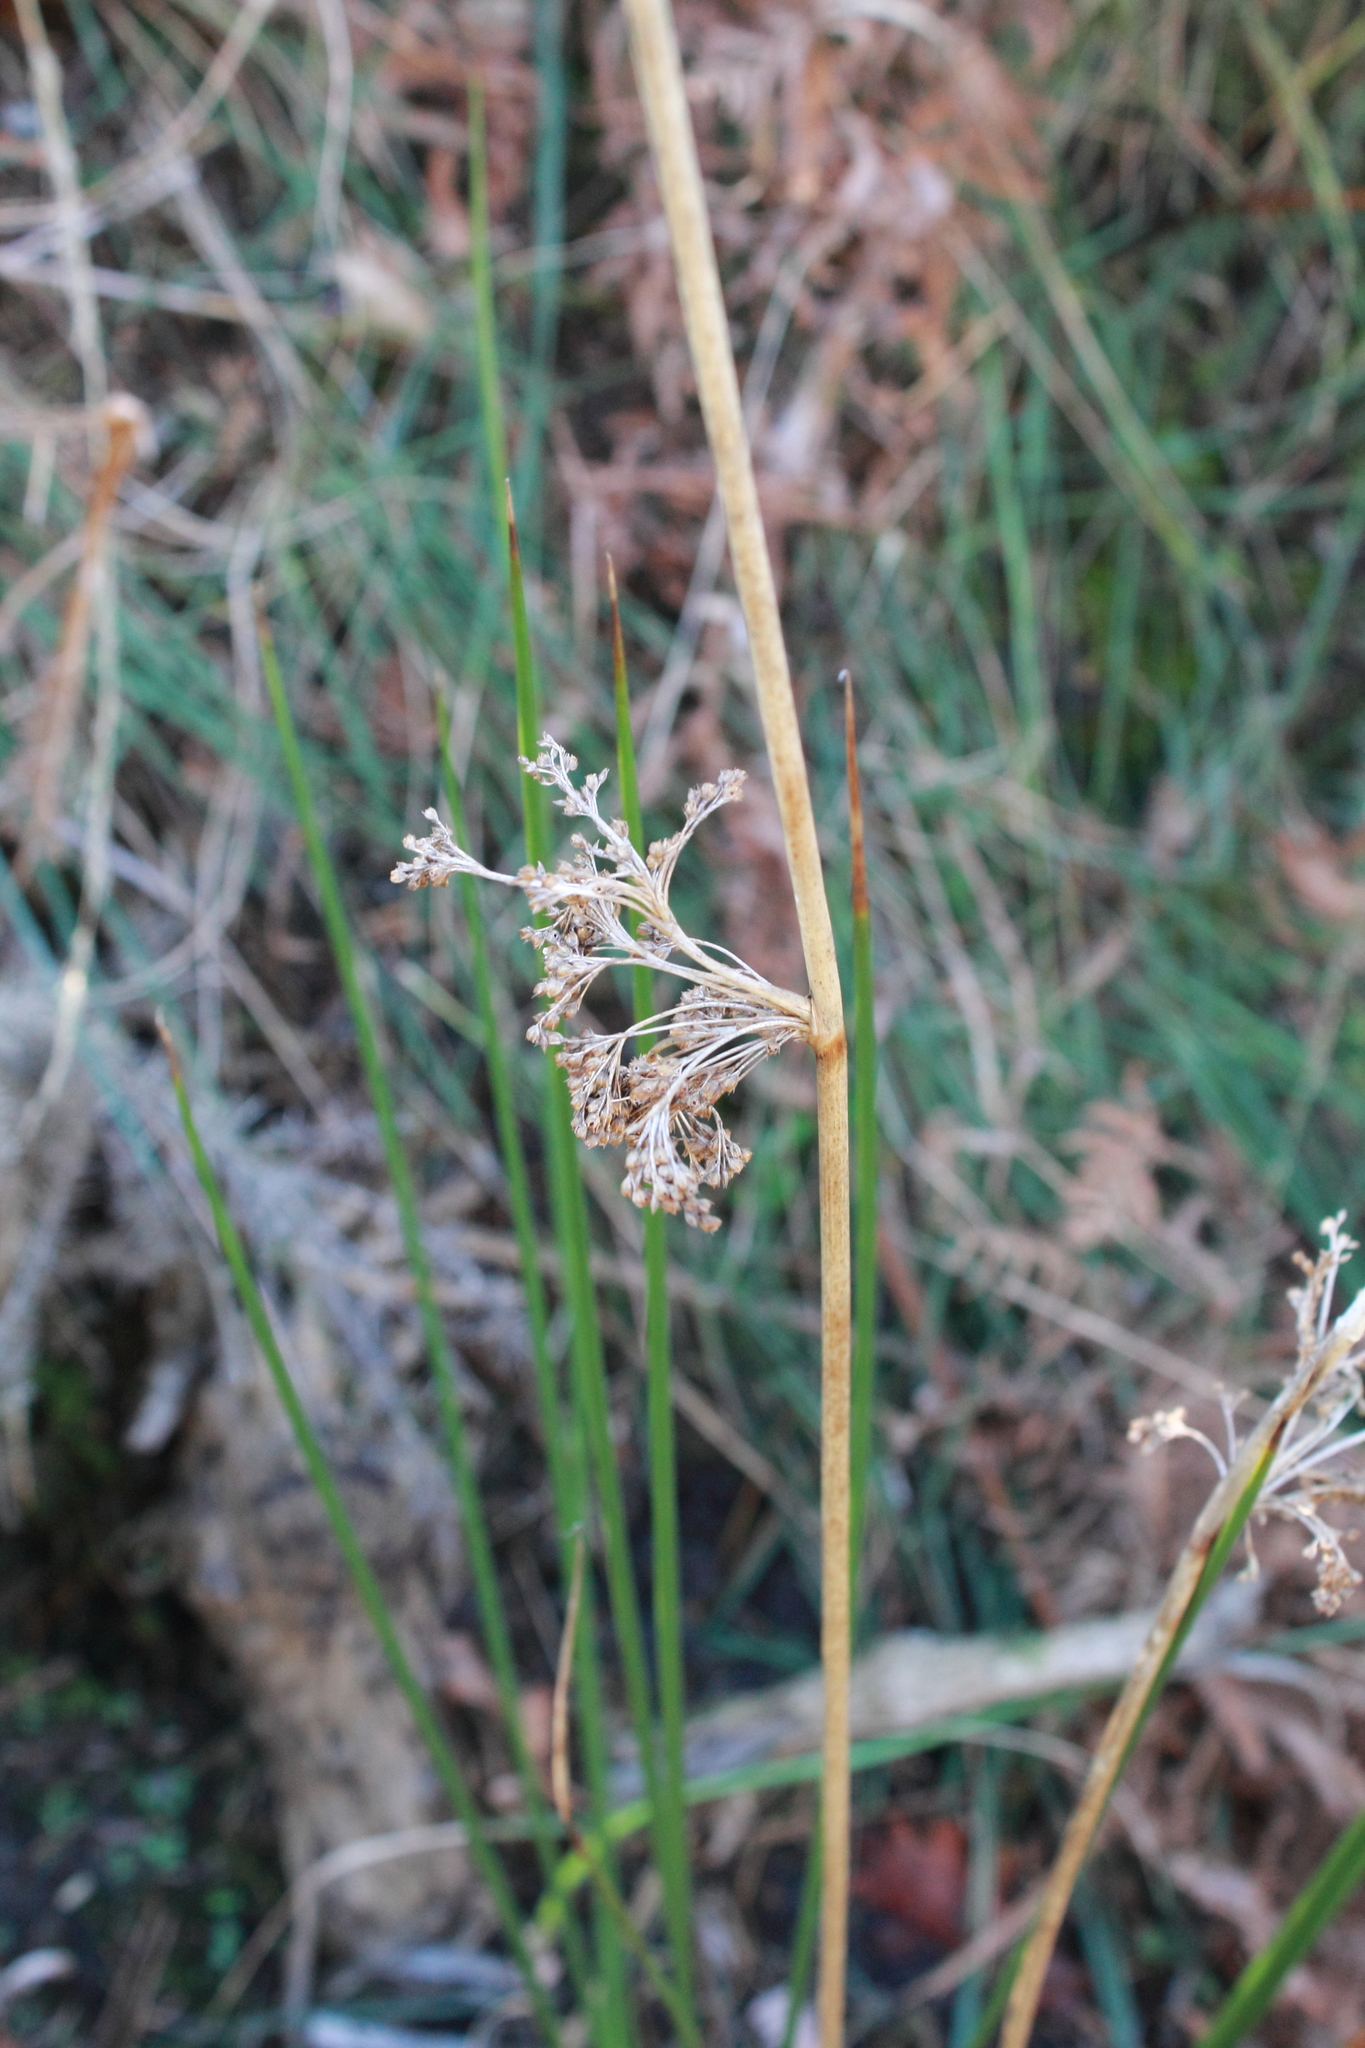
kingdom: Plantae
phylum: Tracheophyta
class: Liliopsida
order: Poales
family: Juncaceae
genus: Juncus
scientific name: Juncus effusus
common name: Soft rush
